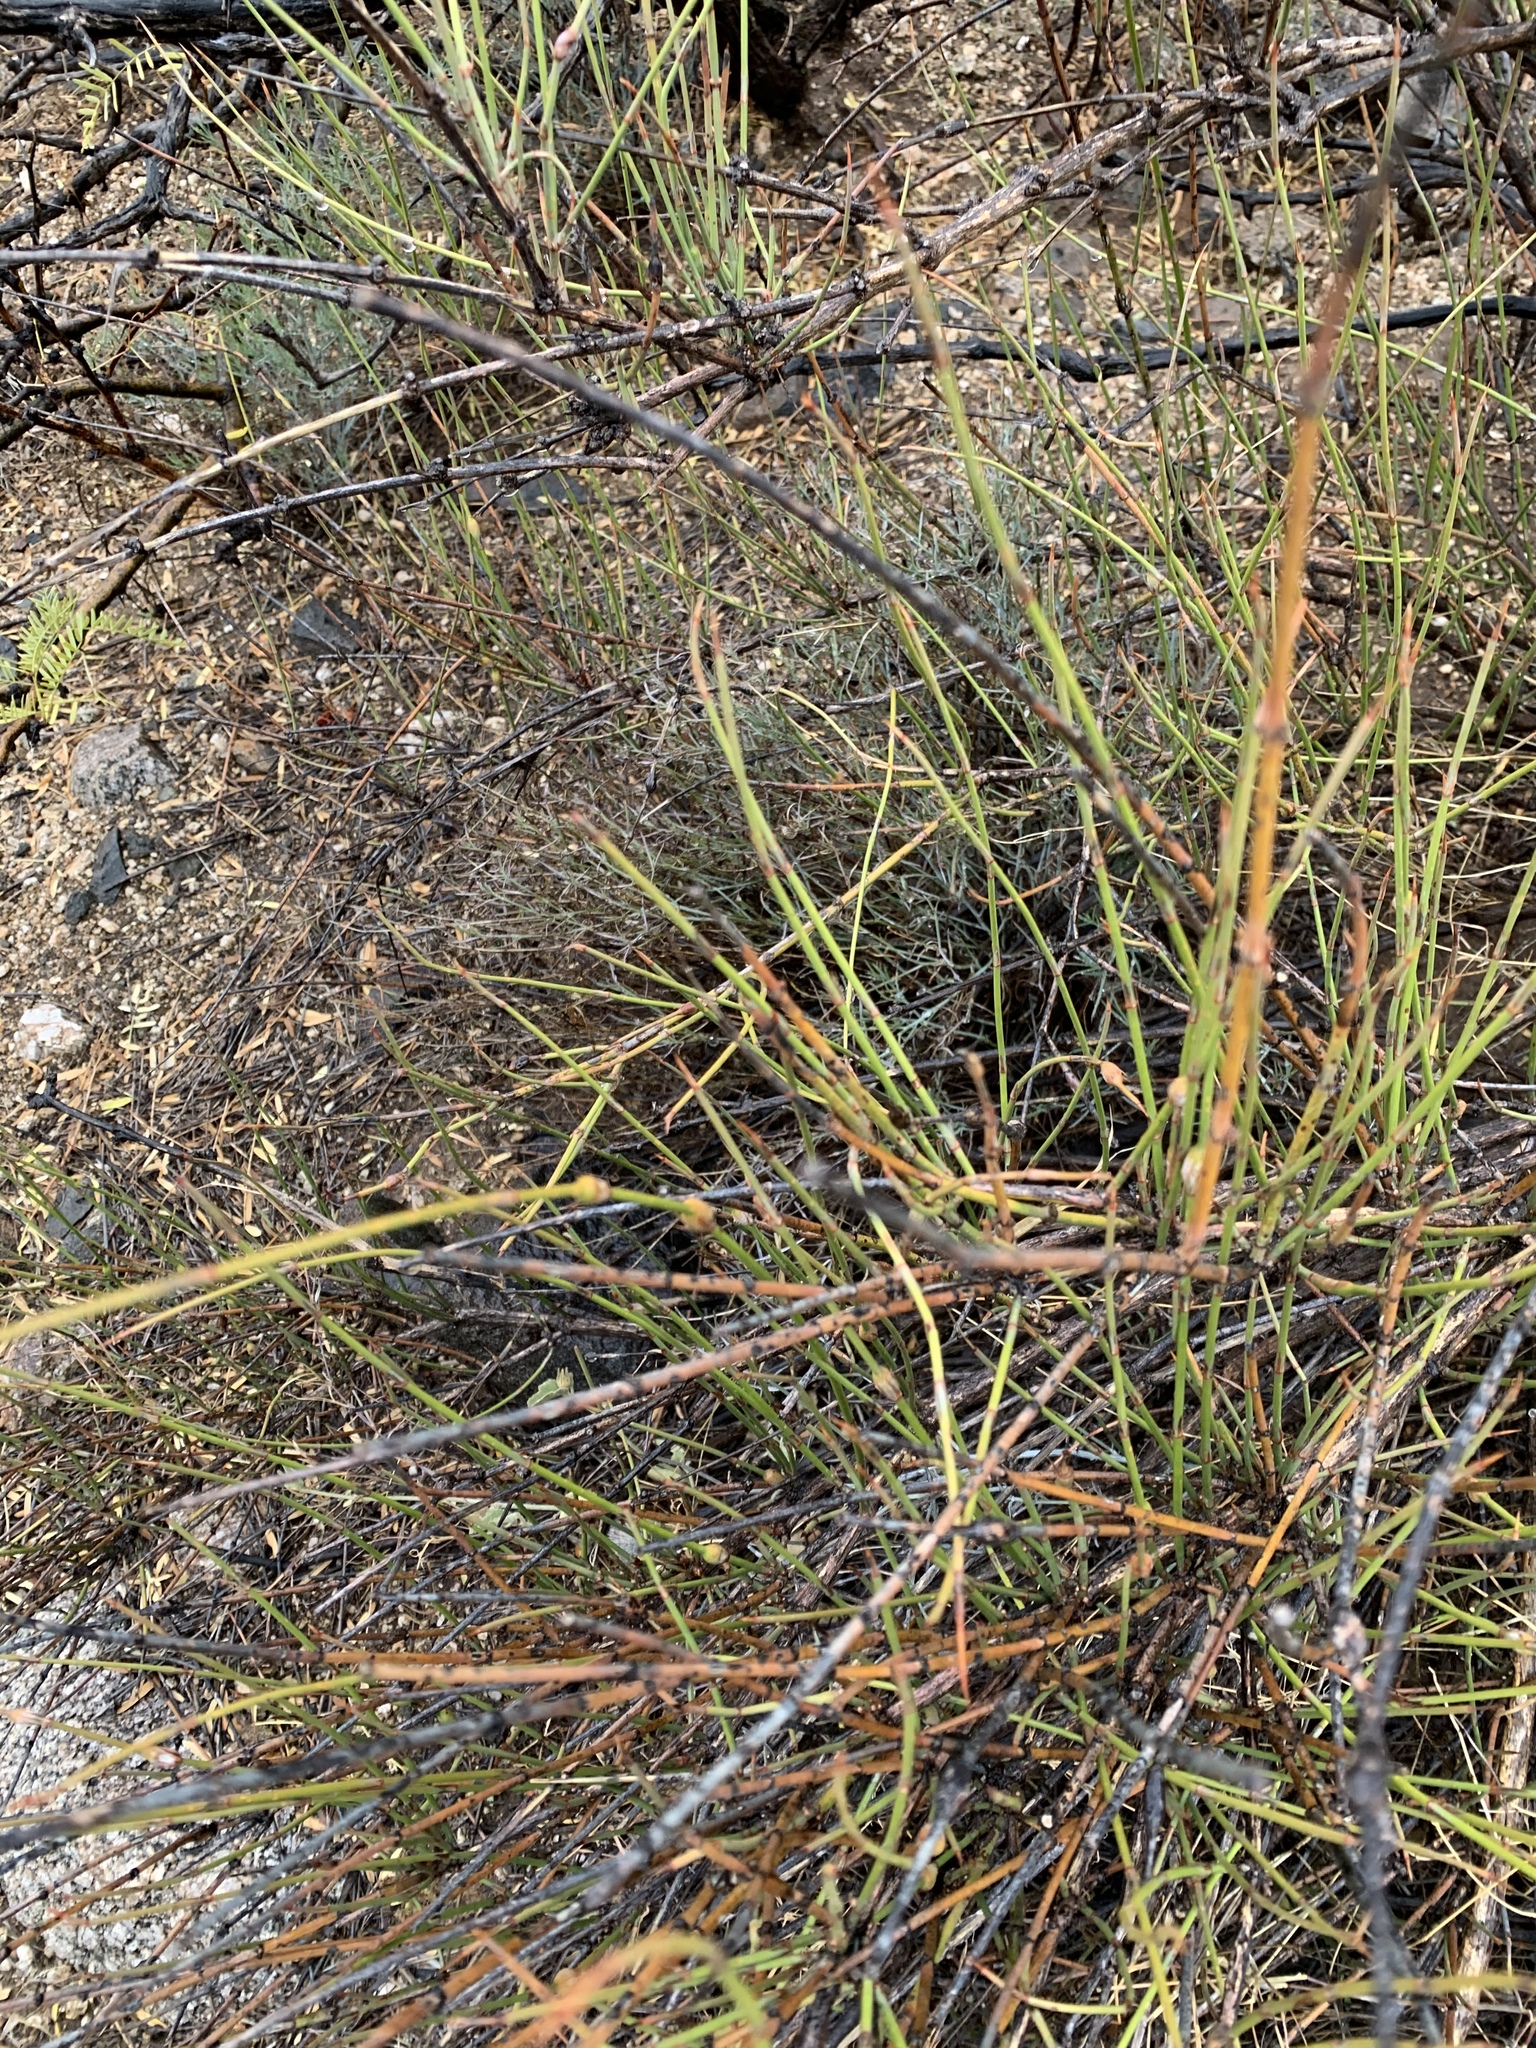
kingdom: Plantae
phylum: Tracheophyta
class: Gnetopsida
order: Ephedrales
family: Ephedraceae
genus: Ephedra
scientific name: Ephedra trifurca
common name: Mexican-tea
